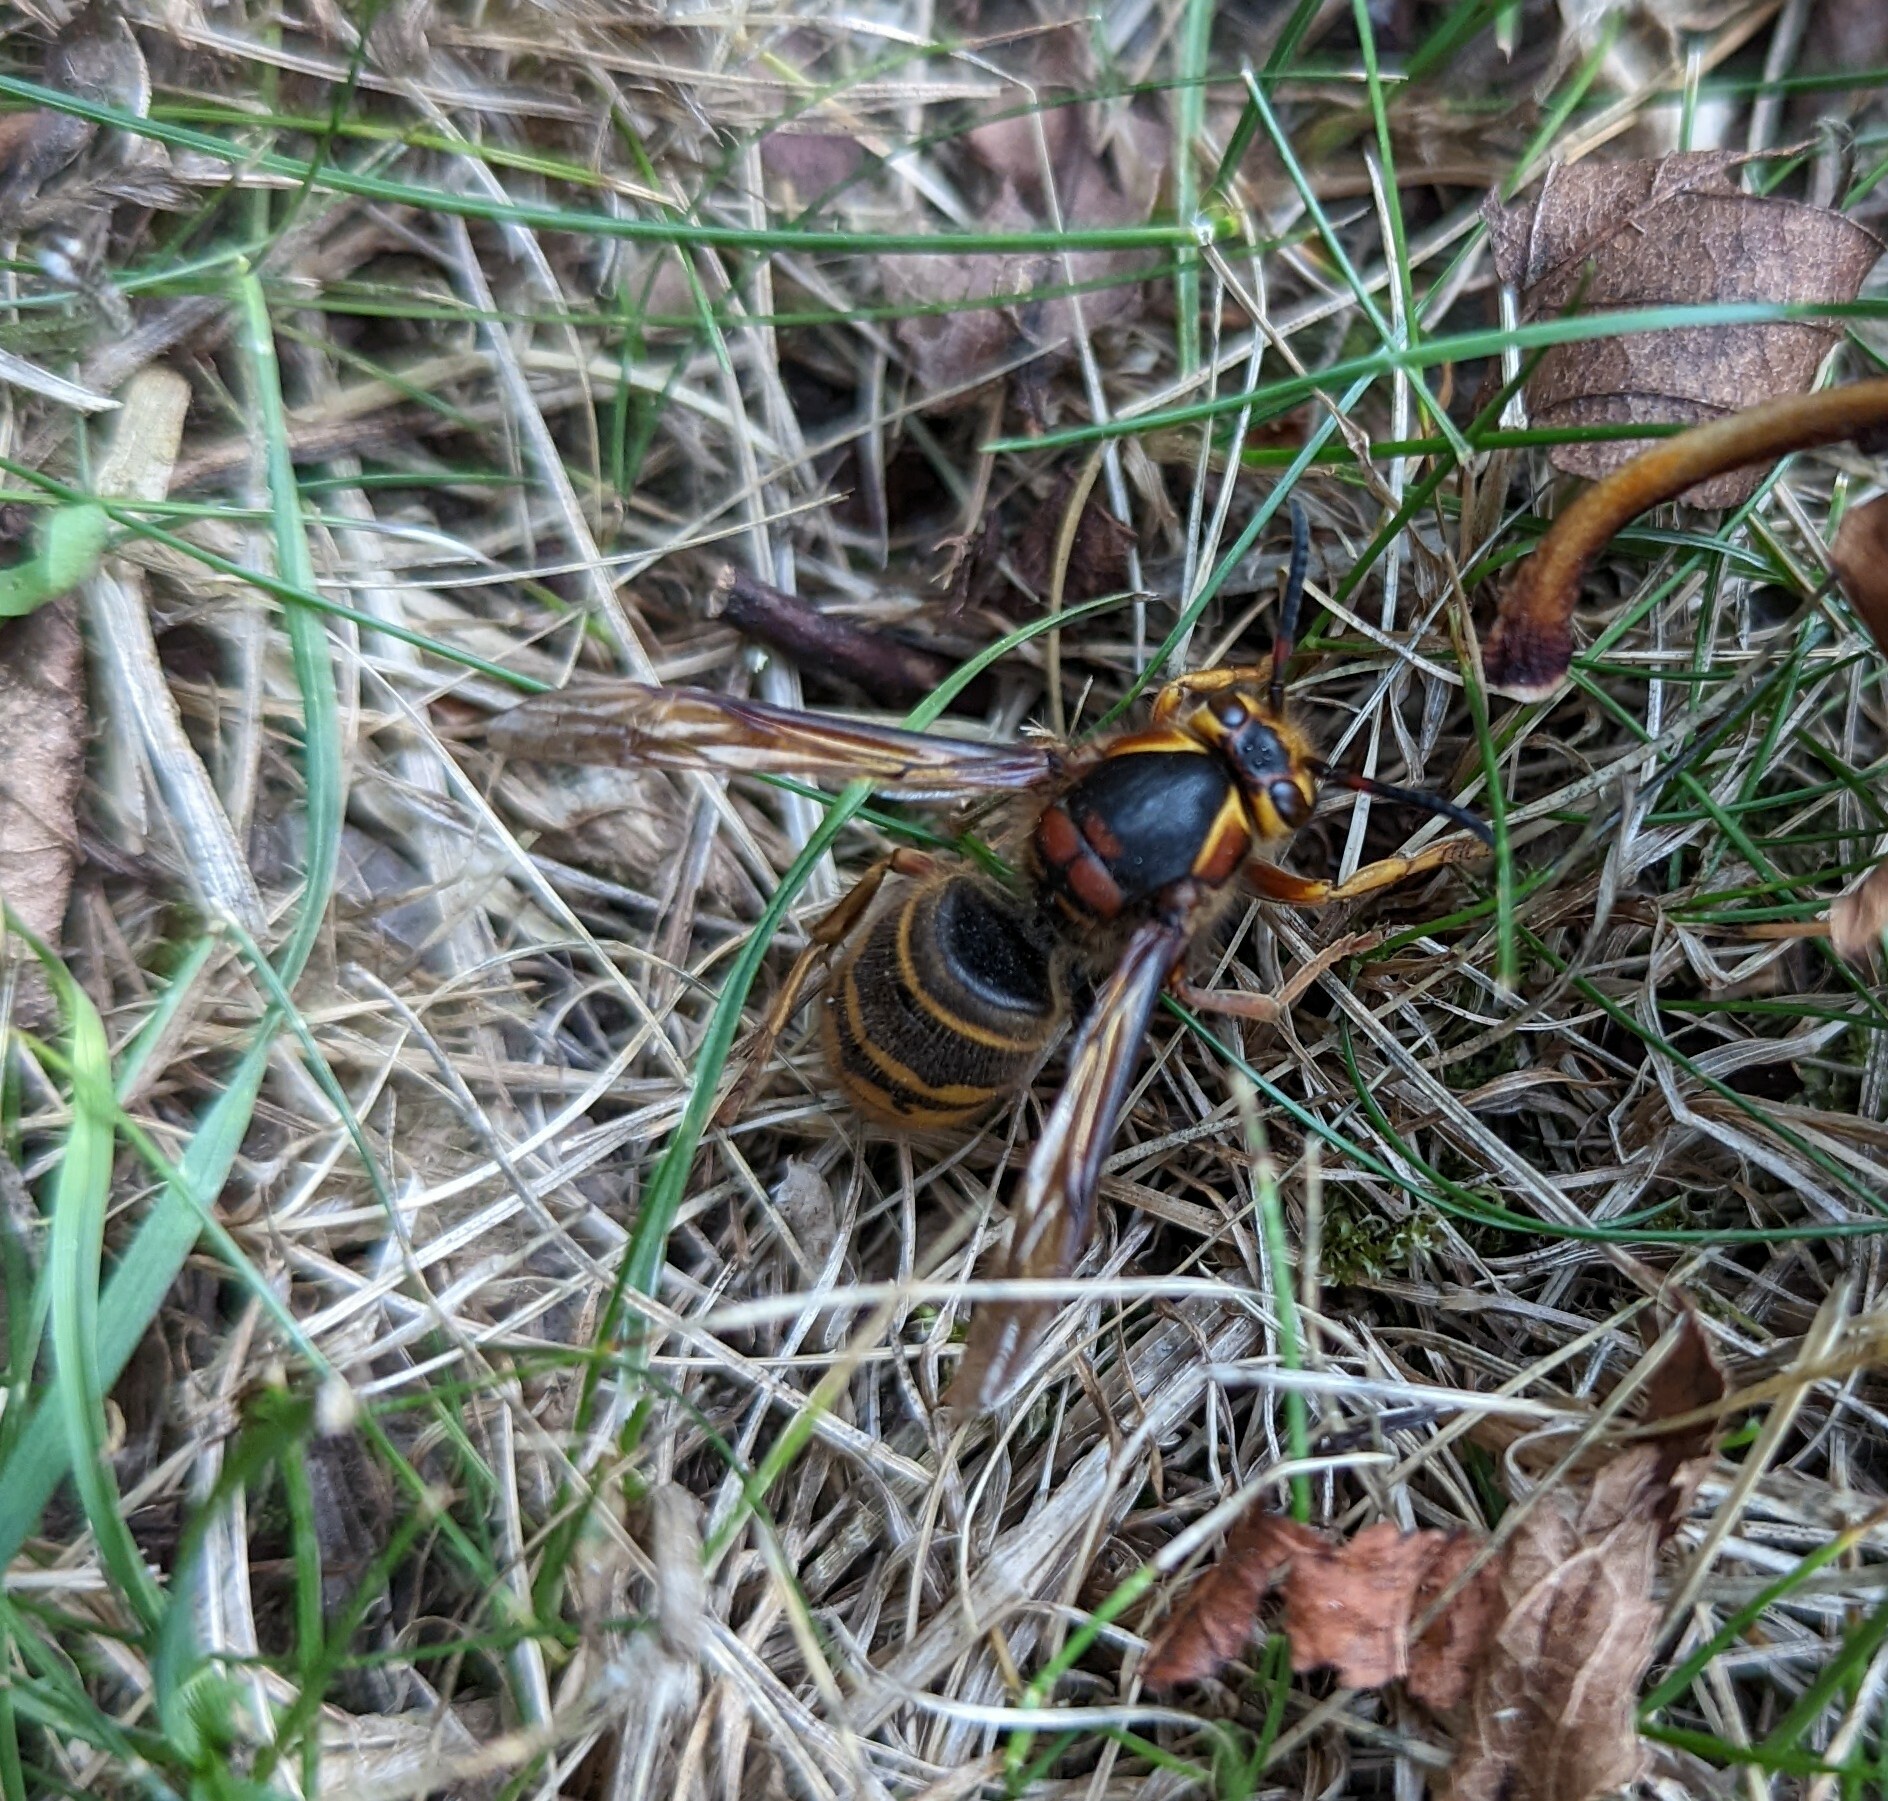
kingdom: Animalia
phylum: Arthropoda
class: Insecta
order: Hymenoptera
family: Vespidae
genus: Dolichovespula
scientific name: Dolichovespula media
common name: Median wasp
